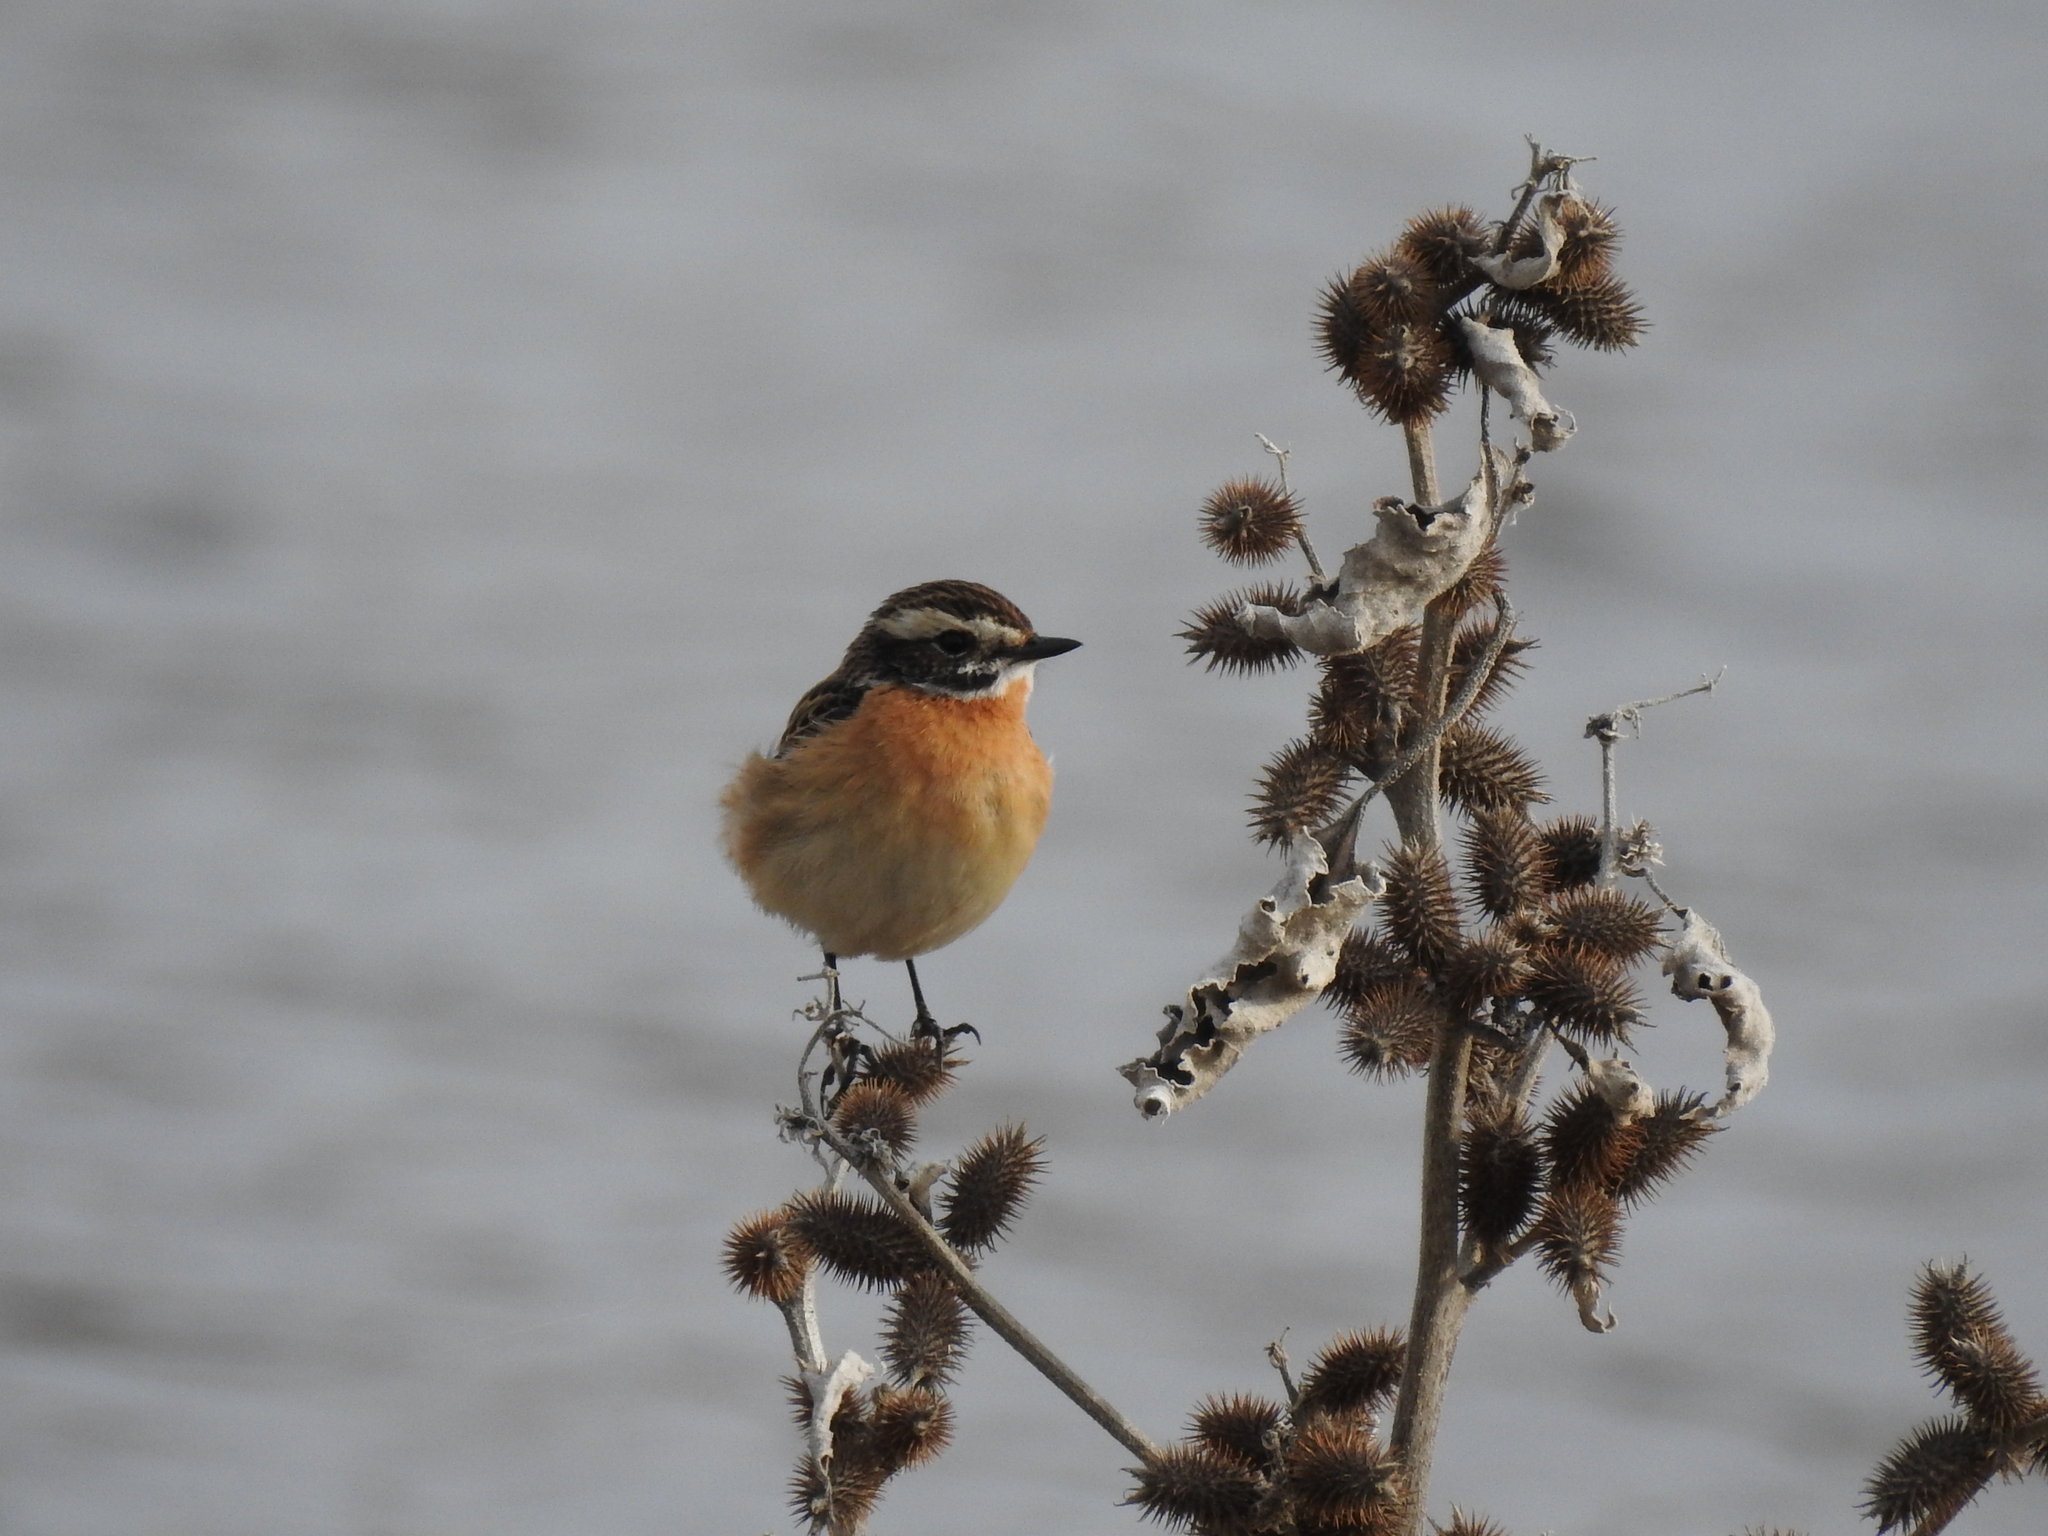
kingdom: Animalia
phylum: Chordata
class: Aves
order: Passeriformes
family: Muscicapidae
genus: Saxicola
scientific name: Saxicola rubetra
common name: Whinchat
